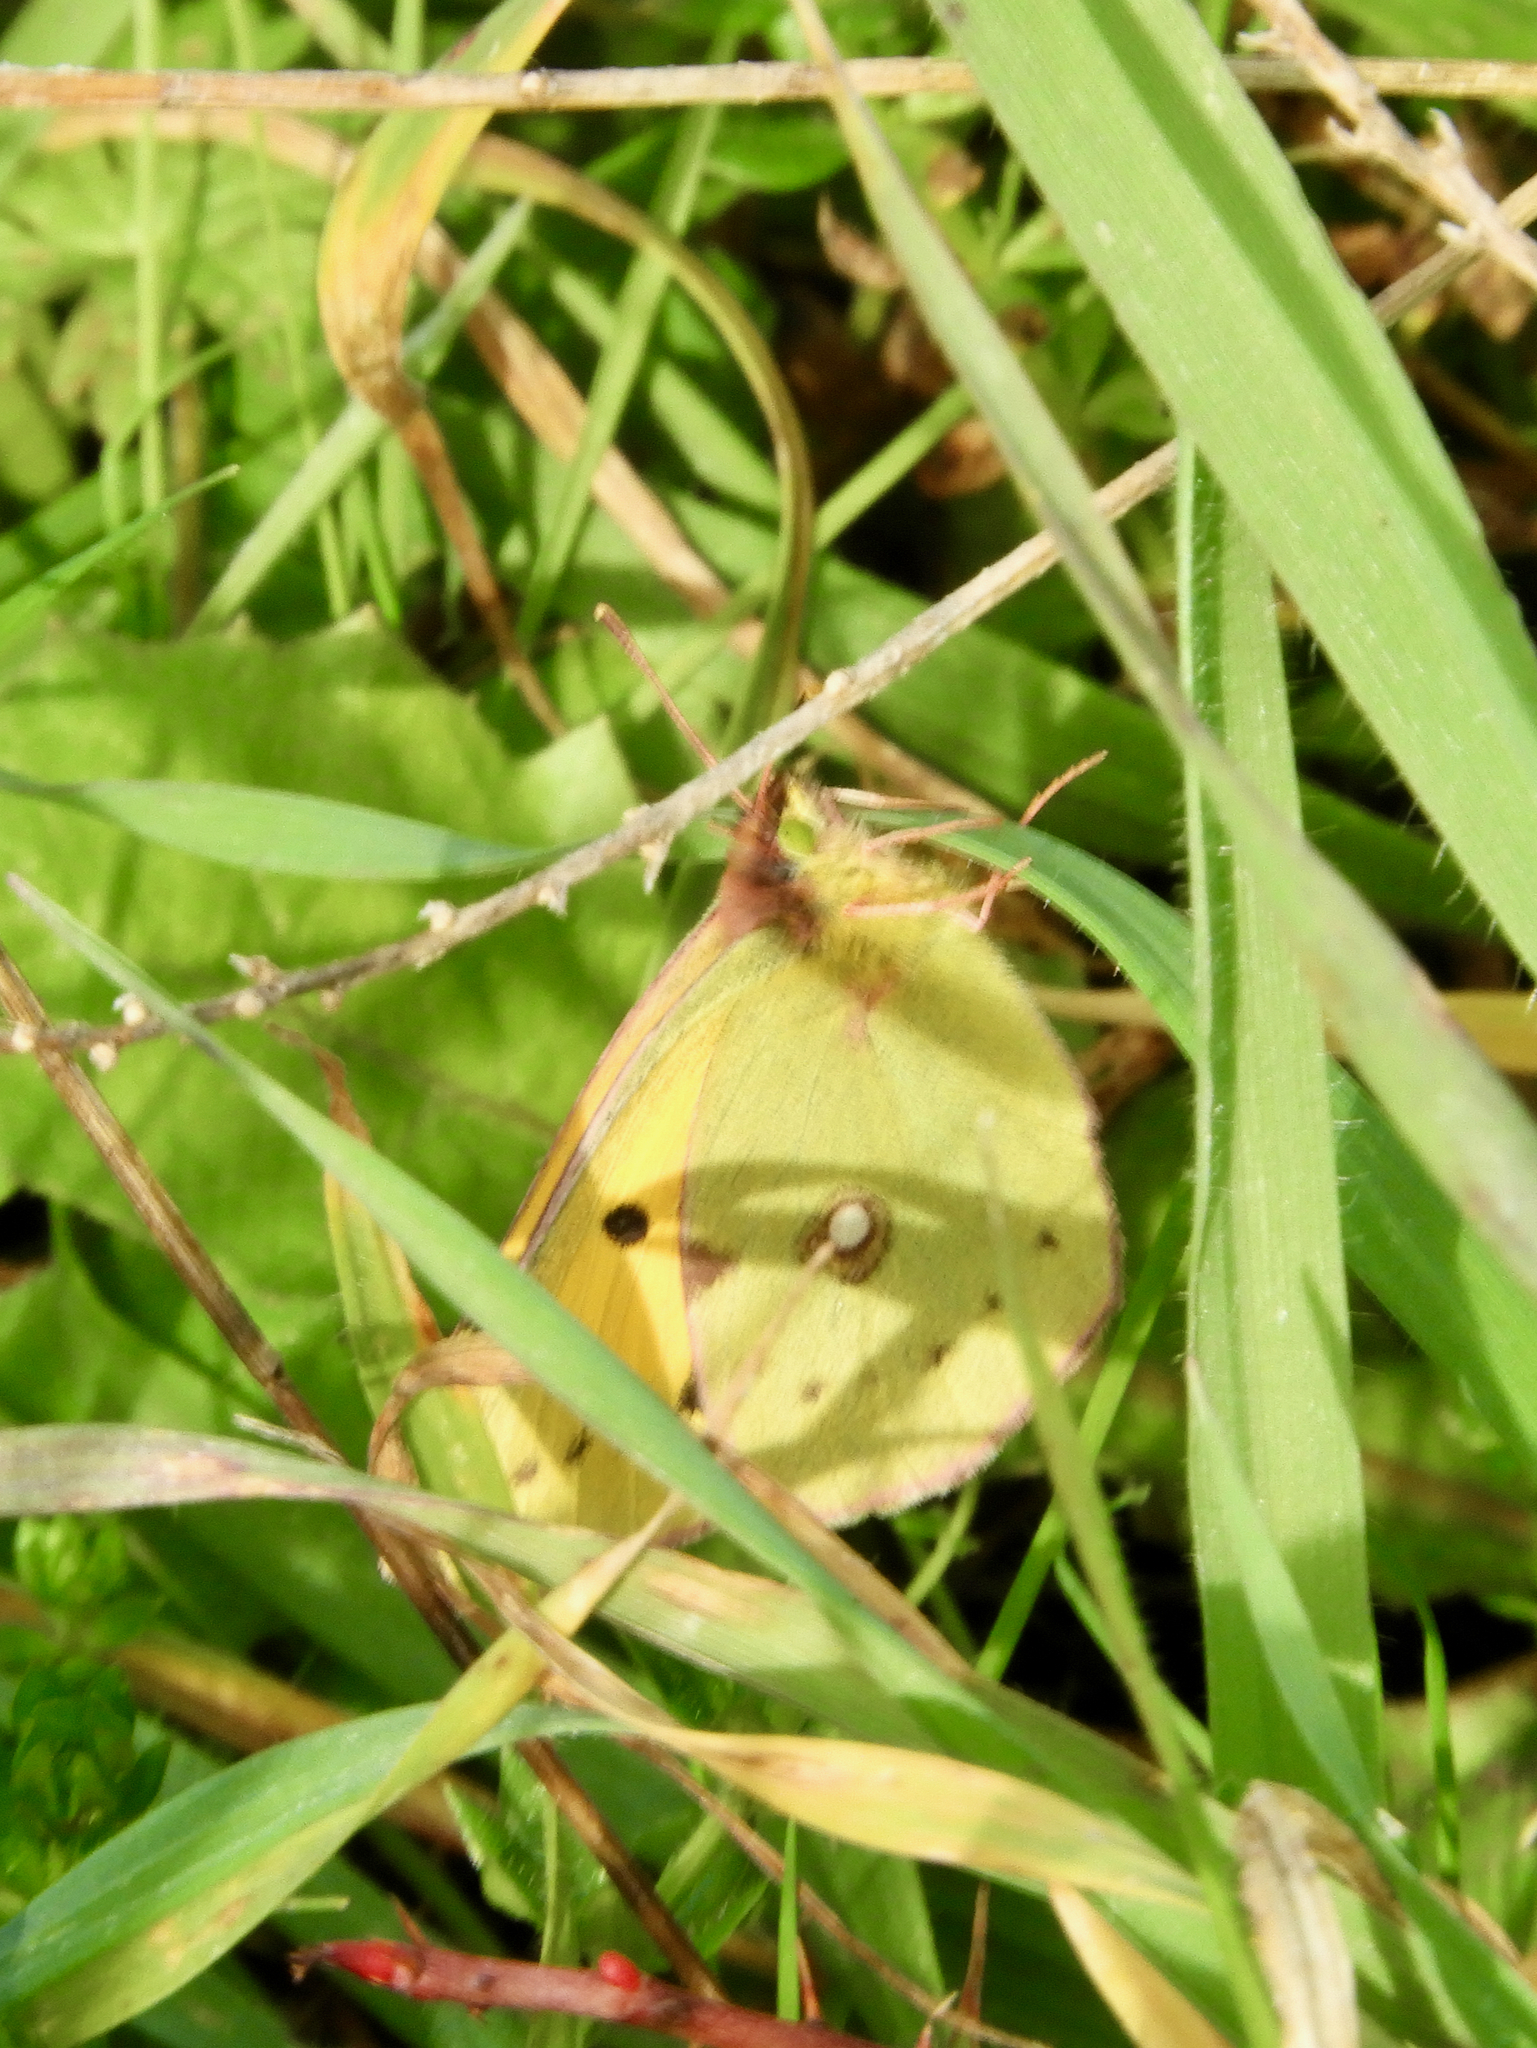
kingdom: Animalia
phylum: Arthropoda
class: Insecta
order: Lepidoptera
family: Pieridae
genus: Colias
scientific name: Colias croceus
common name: Clouded yellow
